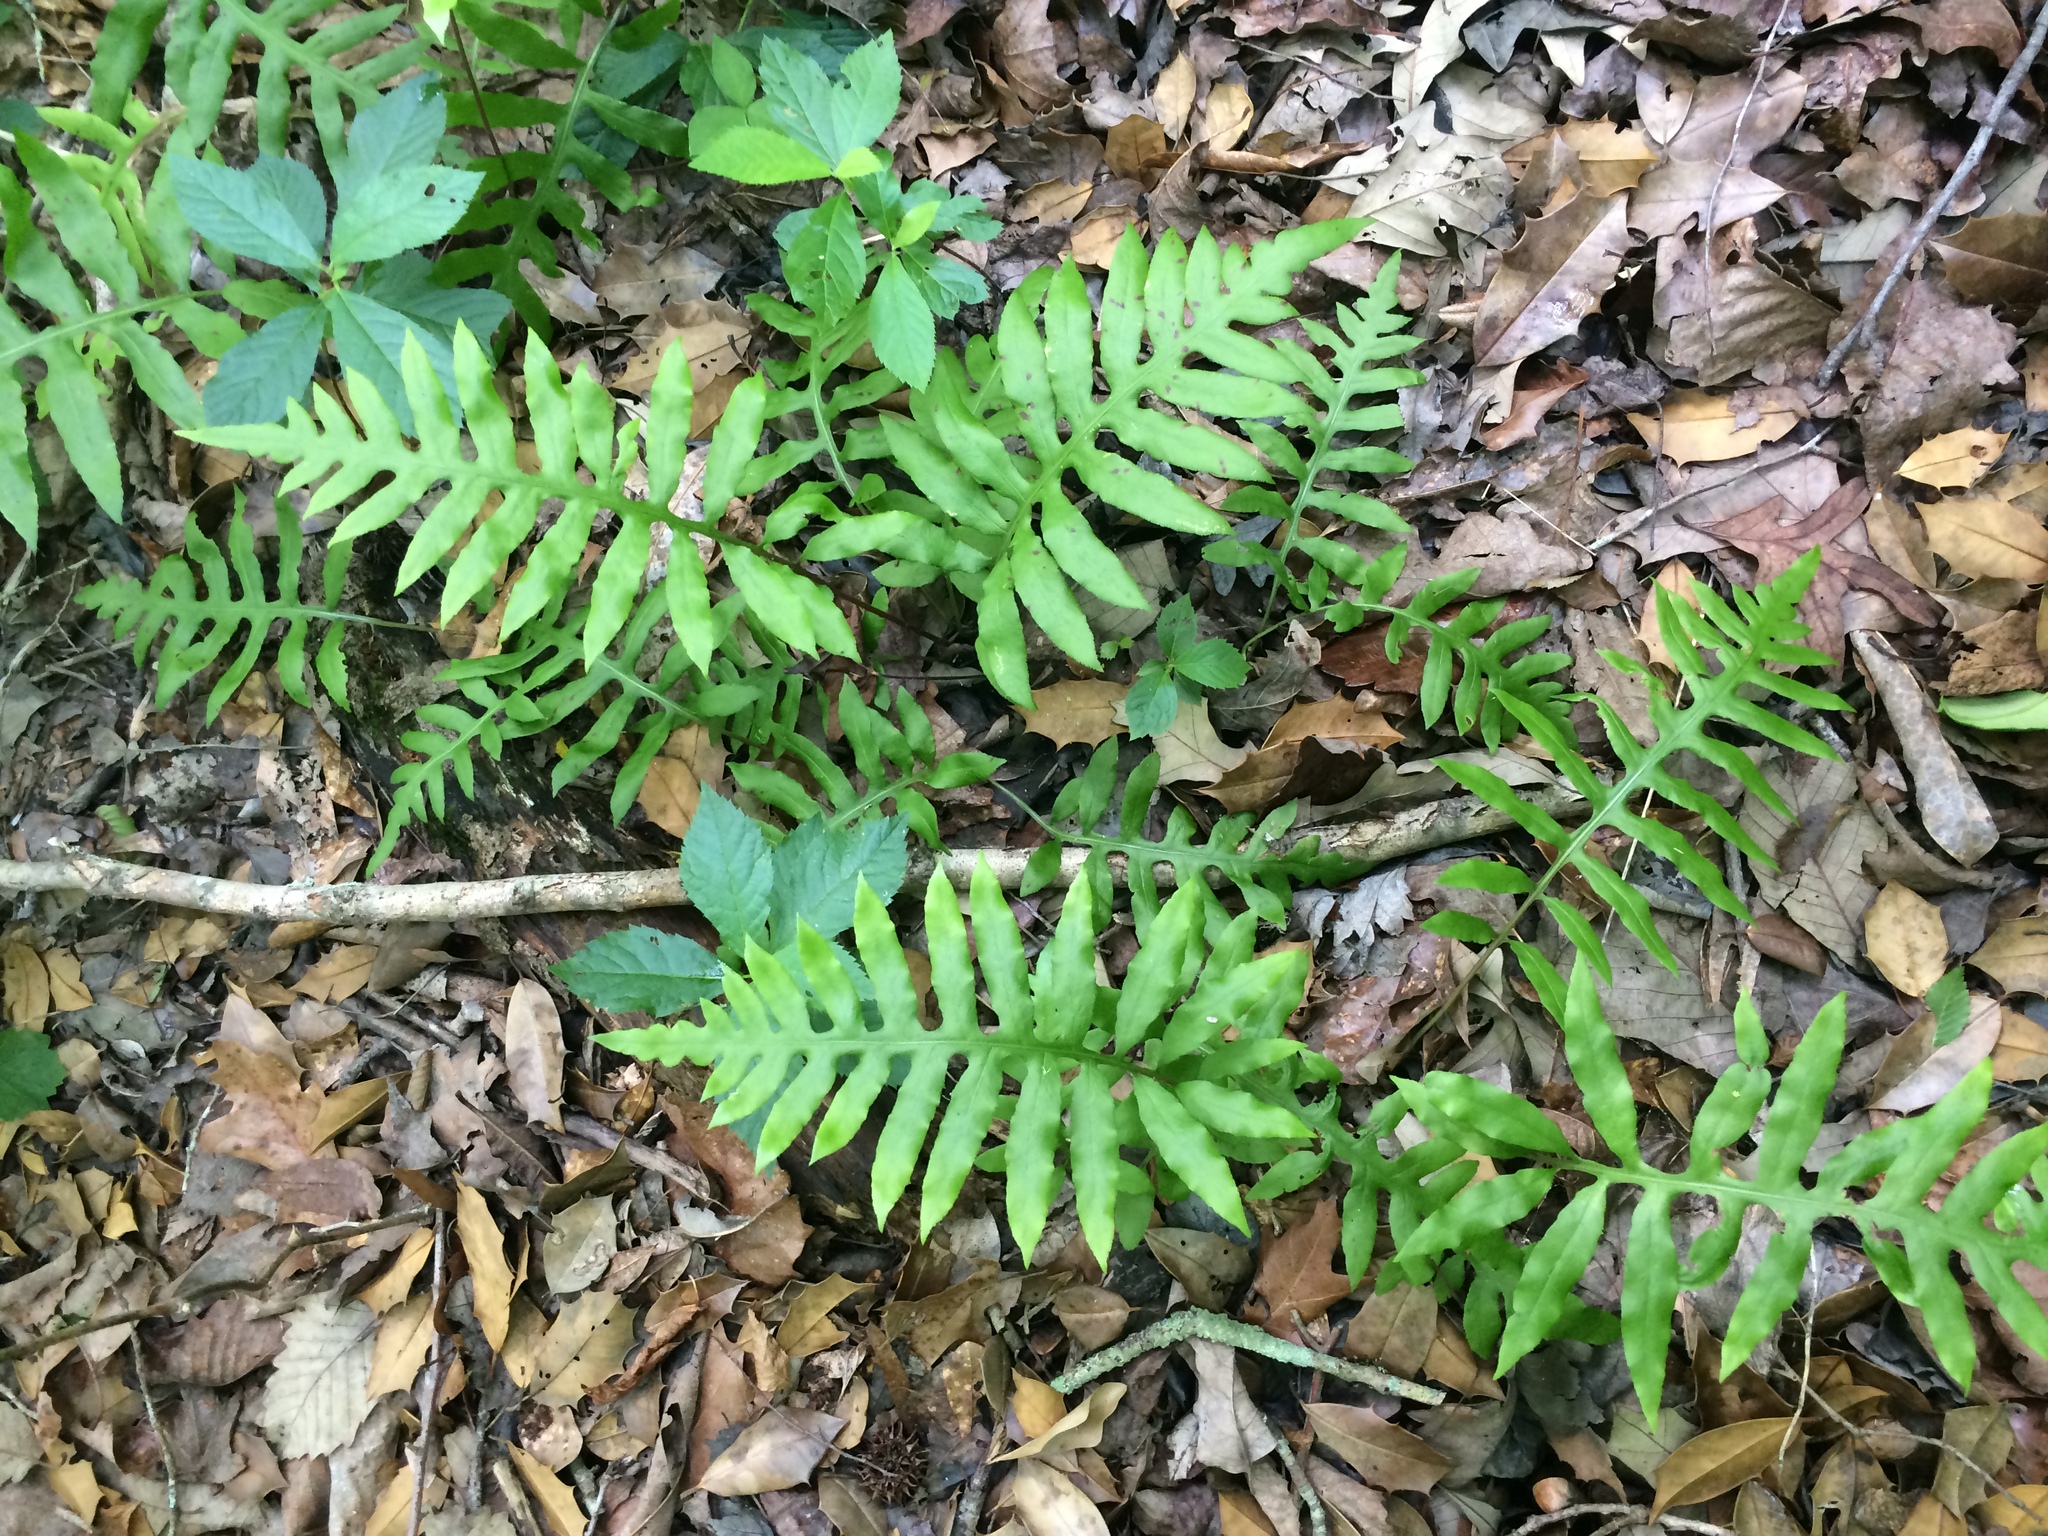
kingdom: Plantae
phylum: Tracheophyta
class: Polypodiopsida
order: Polypodiales
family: Blechnaceae
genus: Lorinseria
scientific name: Lorinseria areolata
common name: Dwarf chain fern
